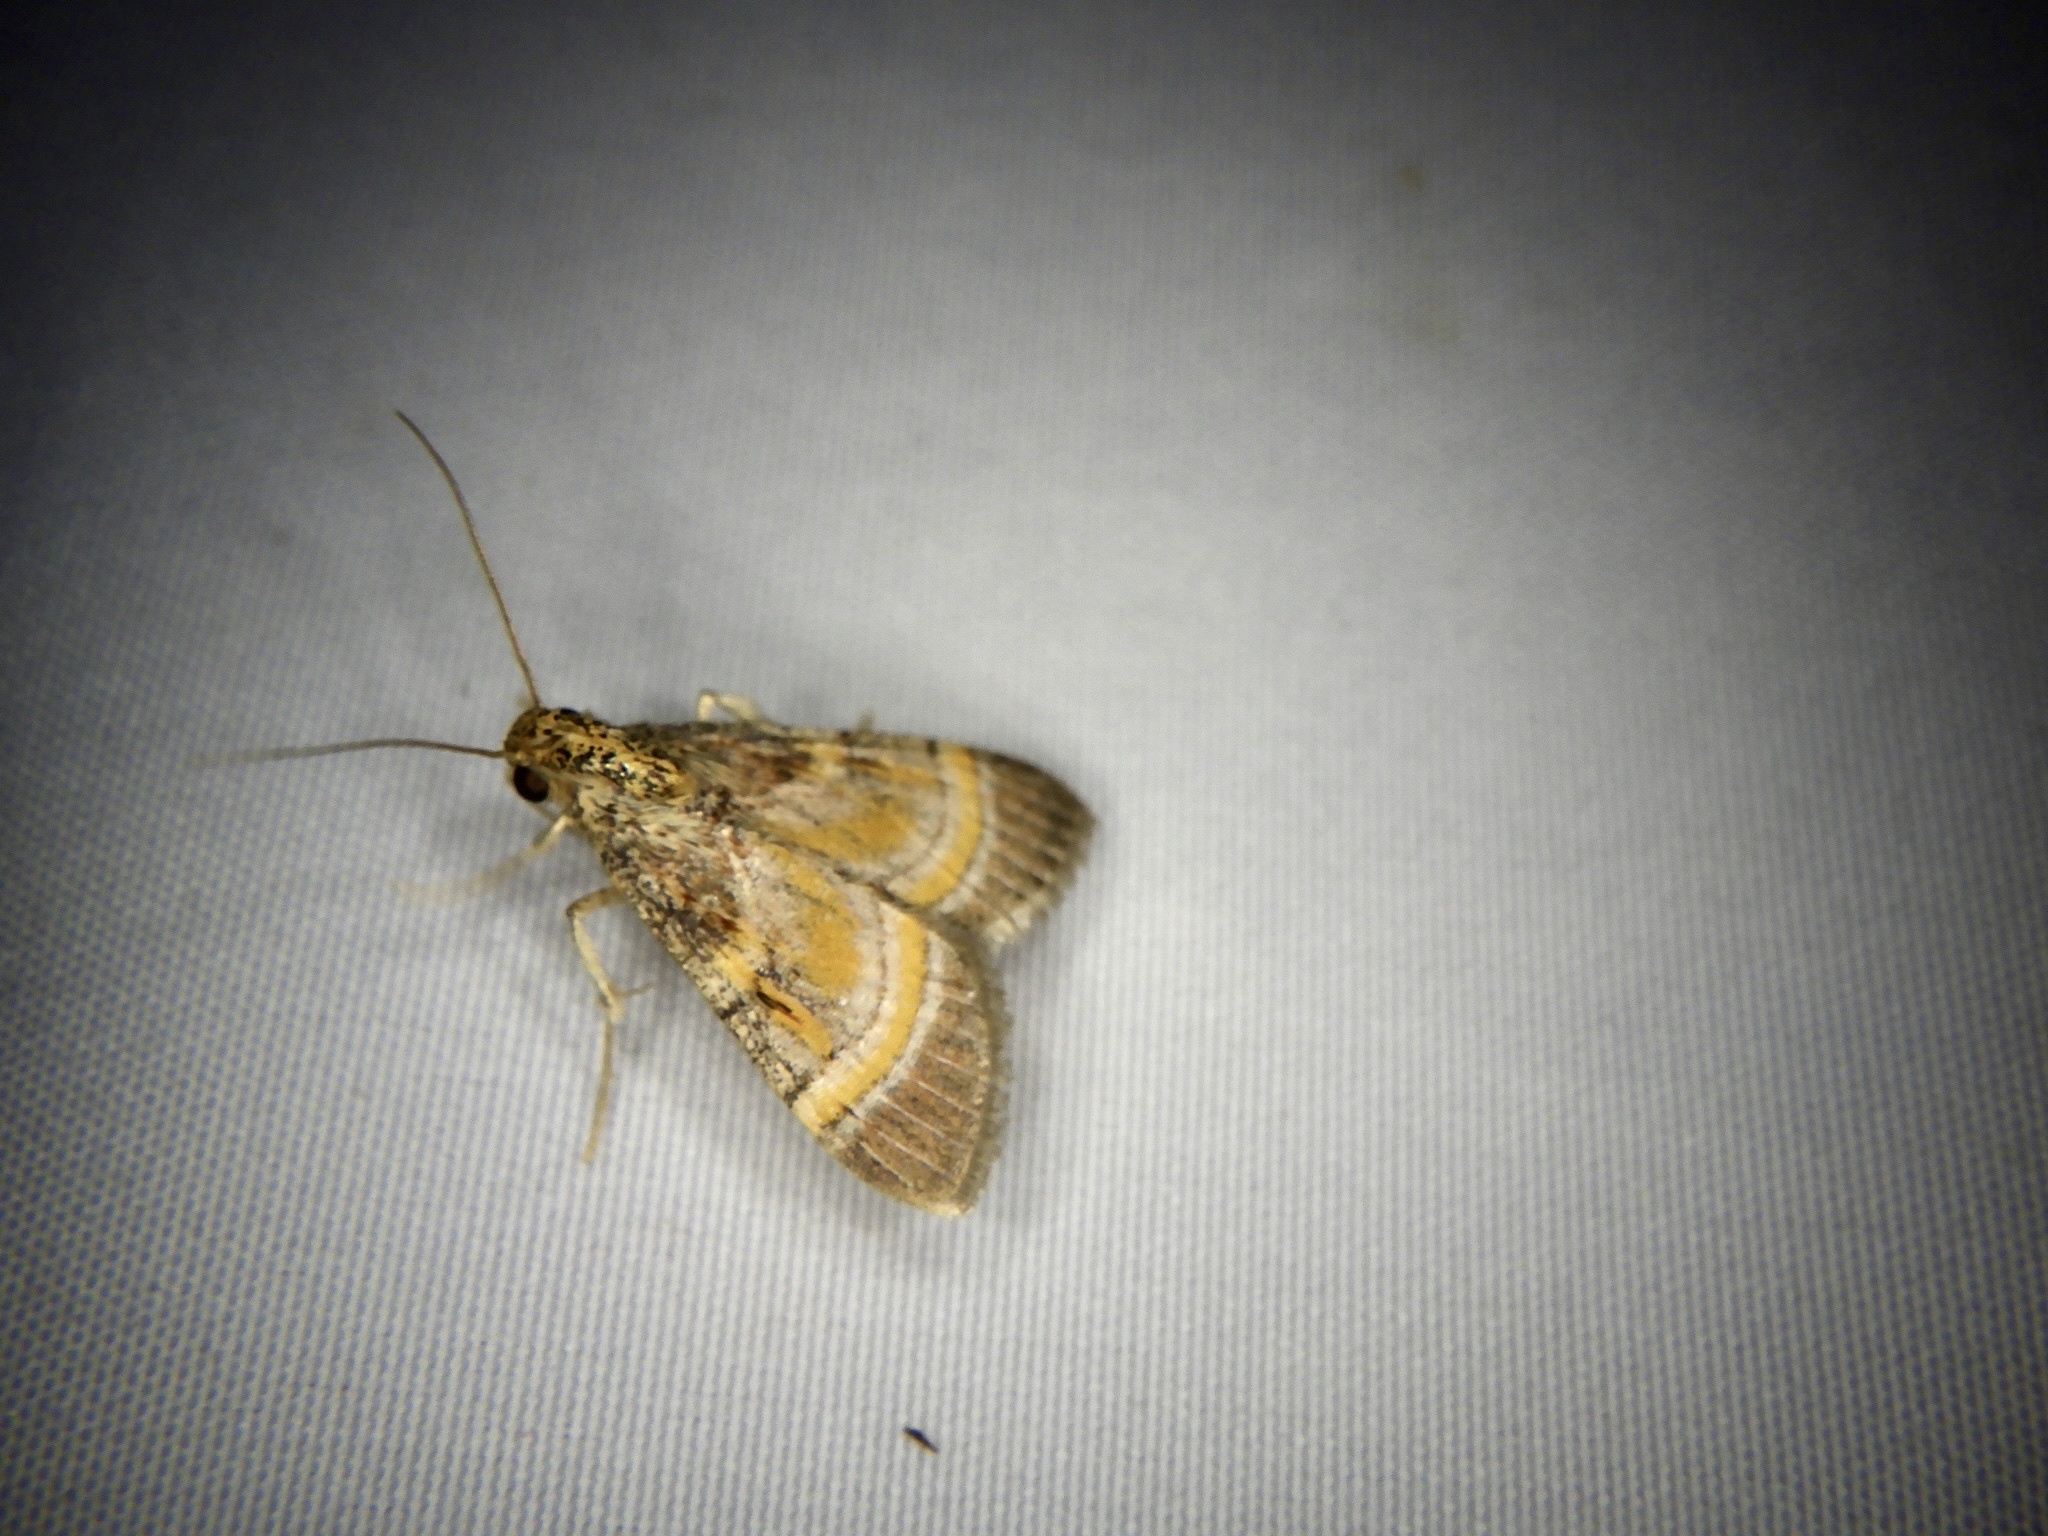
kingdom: Animalia
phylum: Arthropoda
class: Insecta
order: Lepidoptera
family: Pyralidae
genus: Lista
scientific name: Lista ficki
